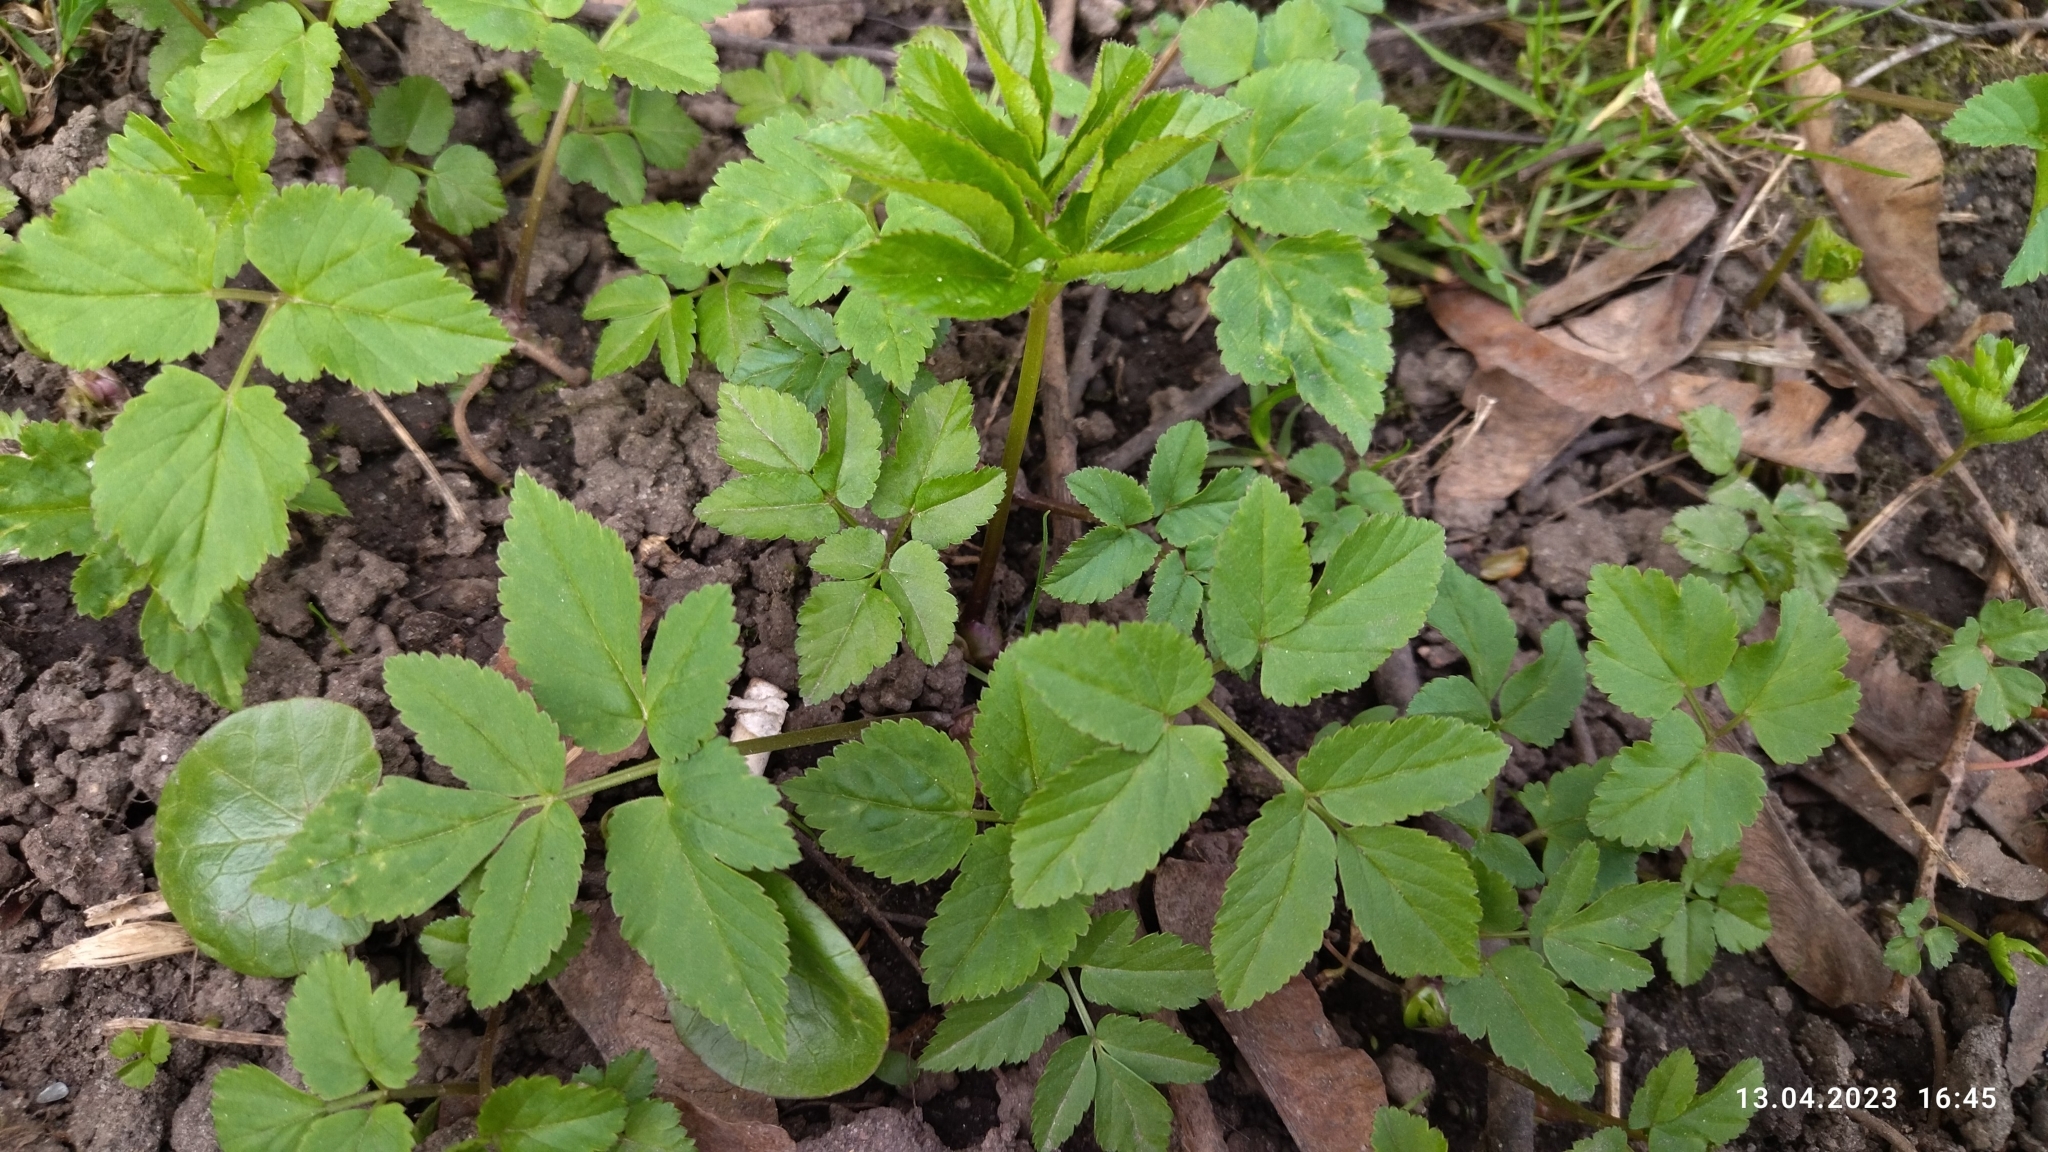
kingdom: Plantae
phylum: Tracheophyta
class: Magnoliopsida
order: Apiales
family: Apiaceae
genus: Aegopodium
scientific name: Aegopodium podagraria
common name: Ground-elder
